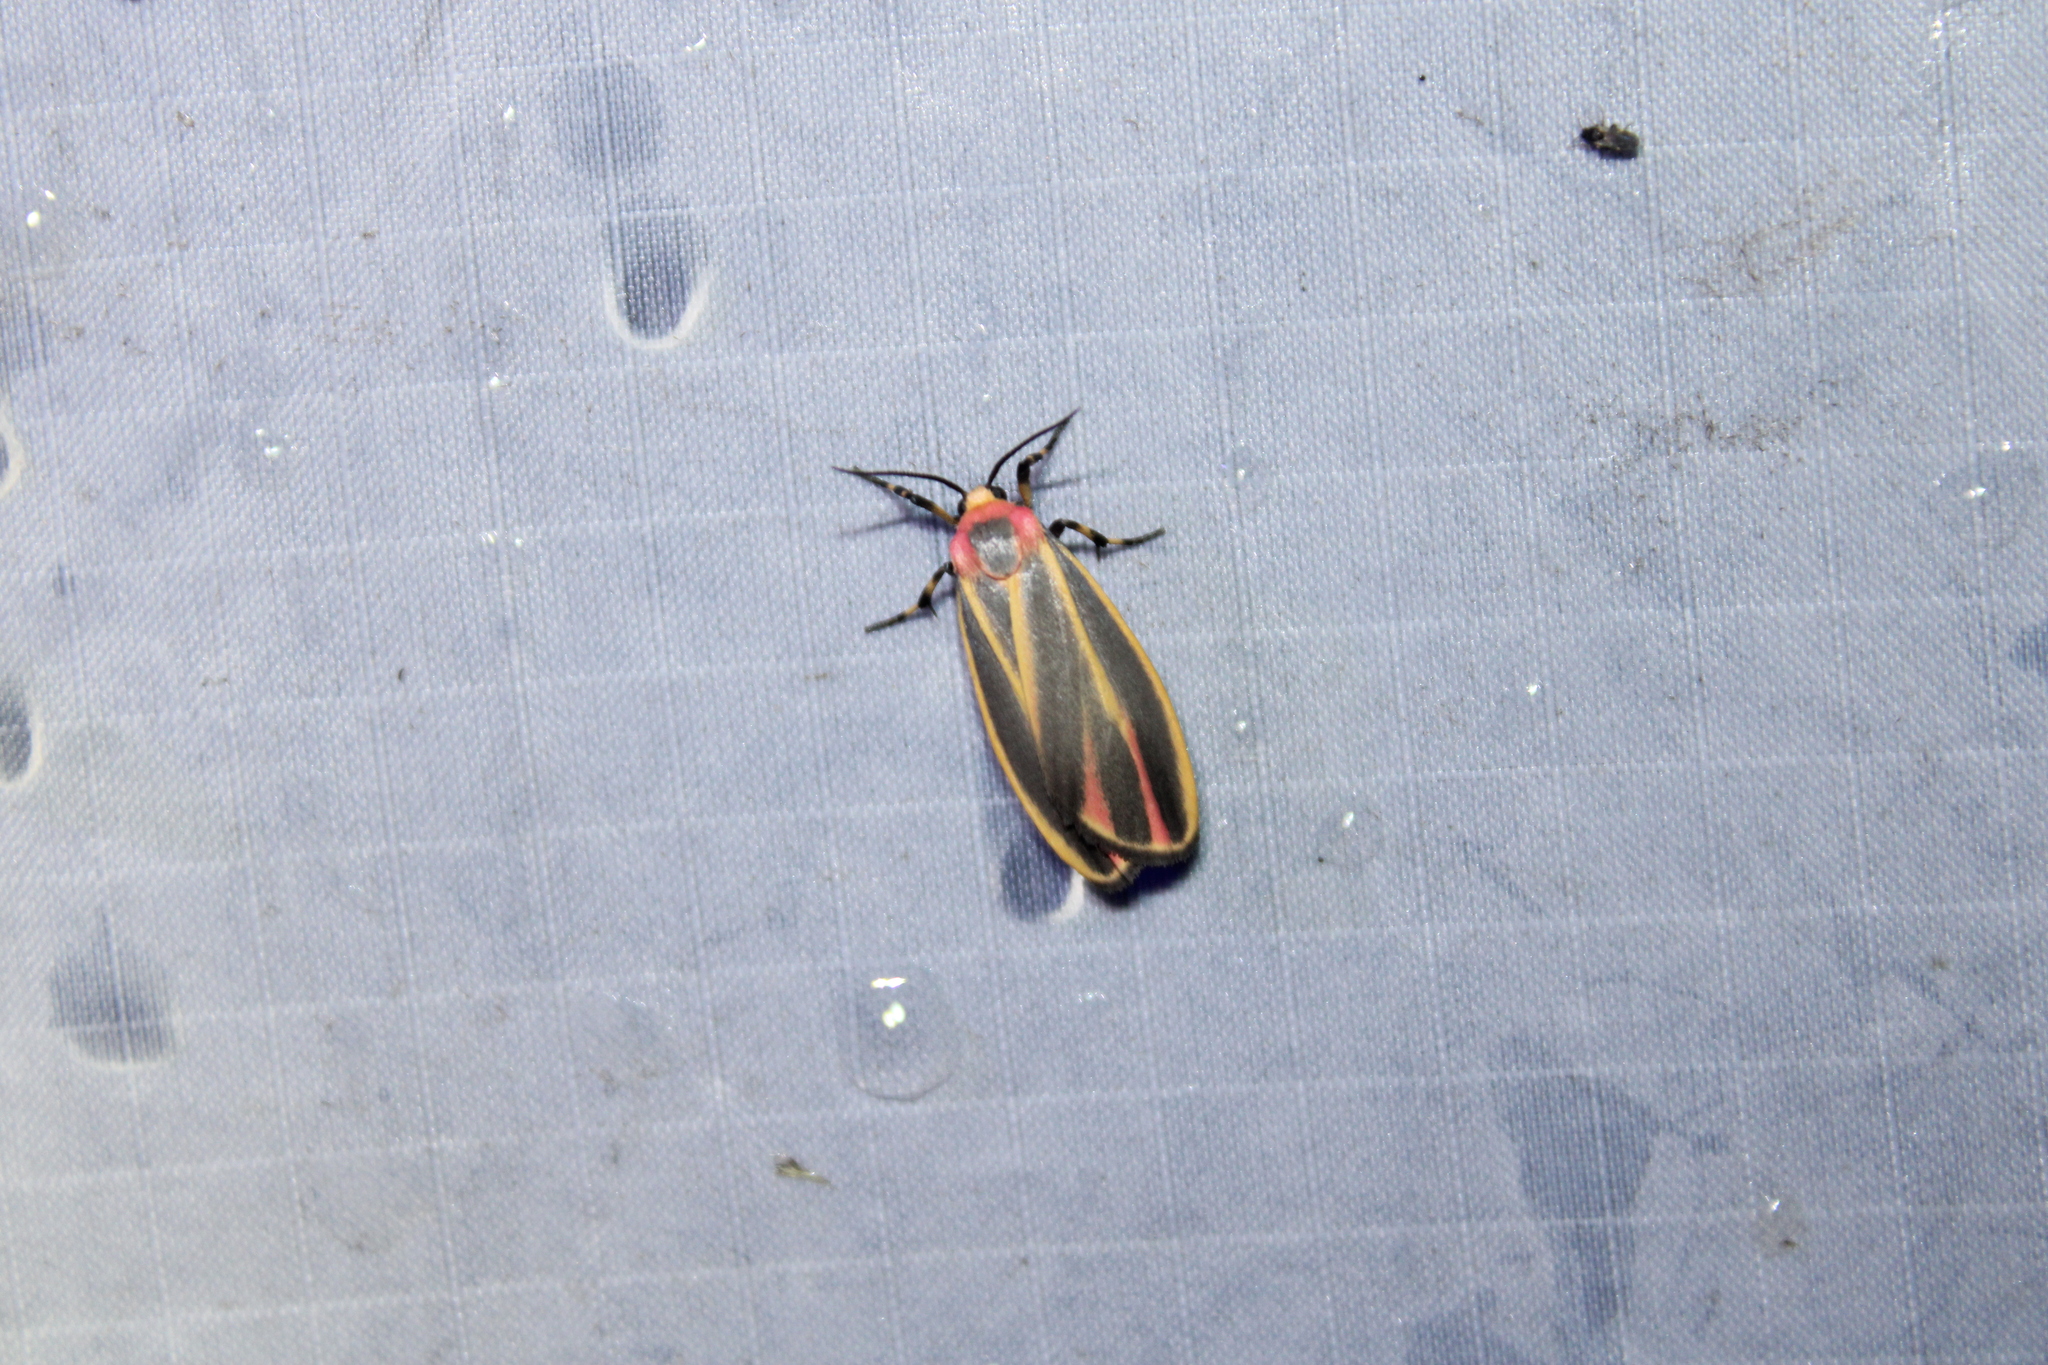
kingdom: Animalia
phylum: Arthropoda
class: Insecta
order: Lepidoptera
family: Erebidae
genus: Hypoprepia
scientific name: Hypoprepia fucosa
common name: Painted lichen moth
